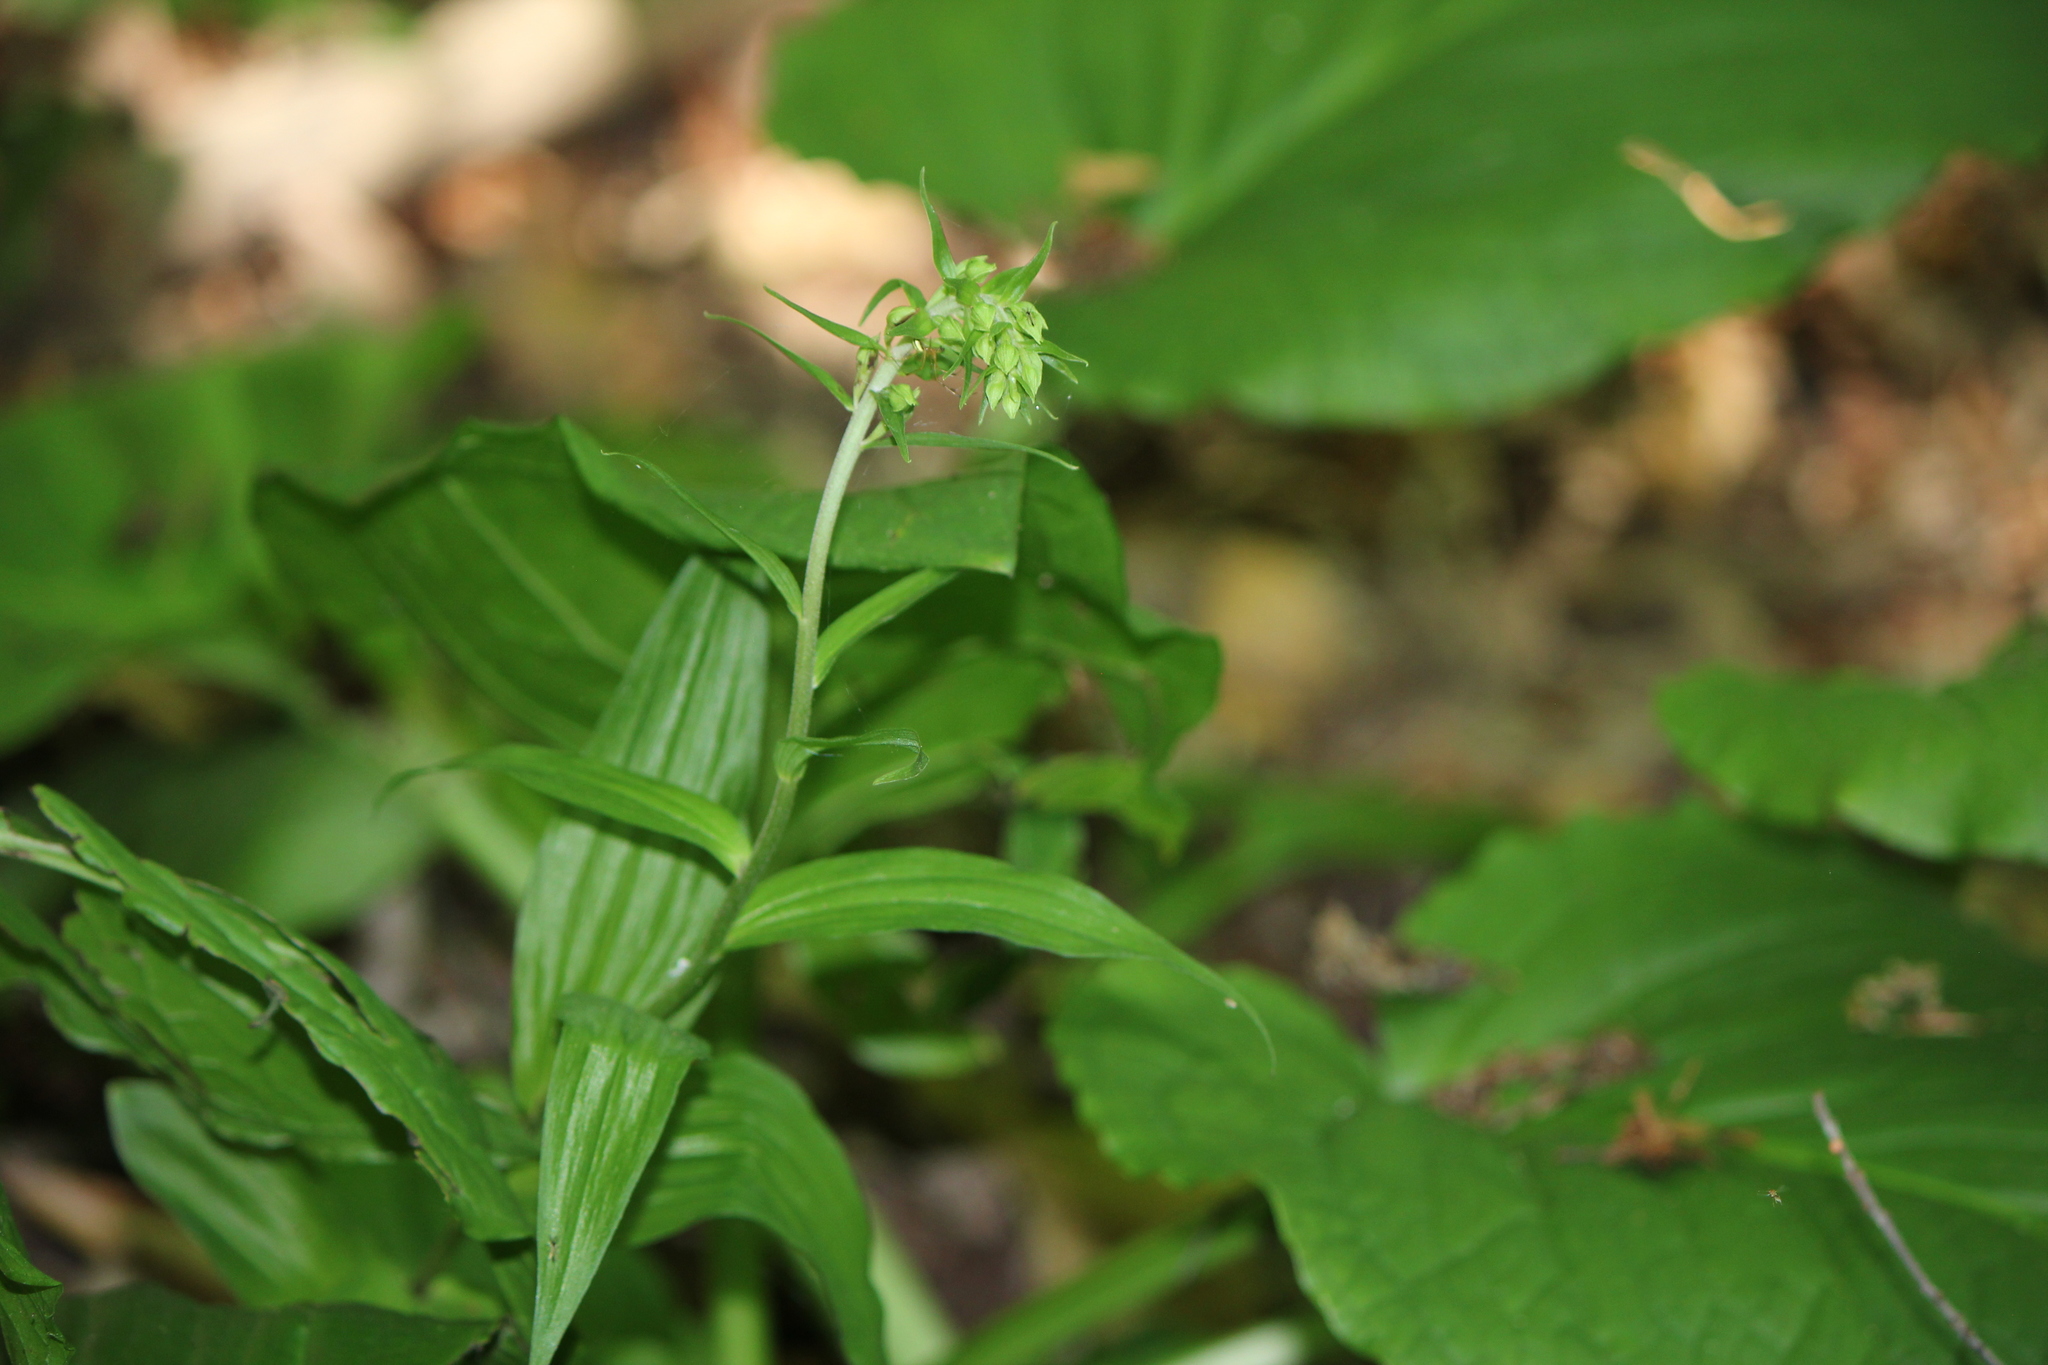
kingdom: Plantae
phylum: Tracheophyta
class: Liliopsida
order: Asparagales
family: Orchidaceae
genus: Epipactis
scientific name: Epipactis helleborine
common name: Broad-leaved helleborine
